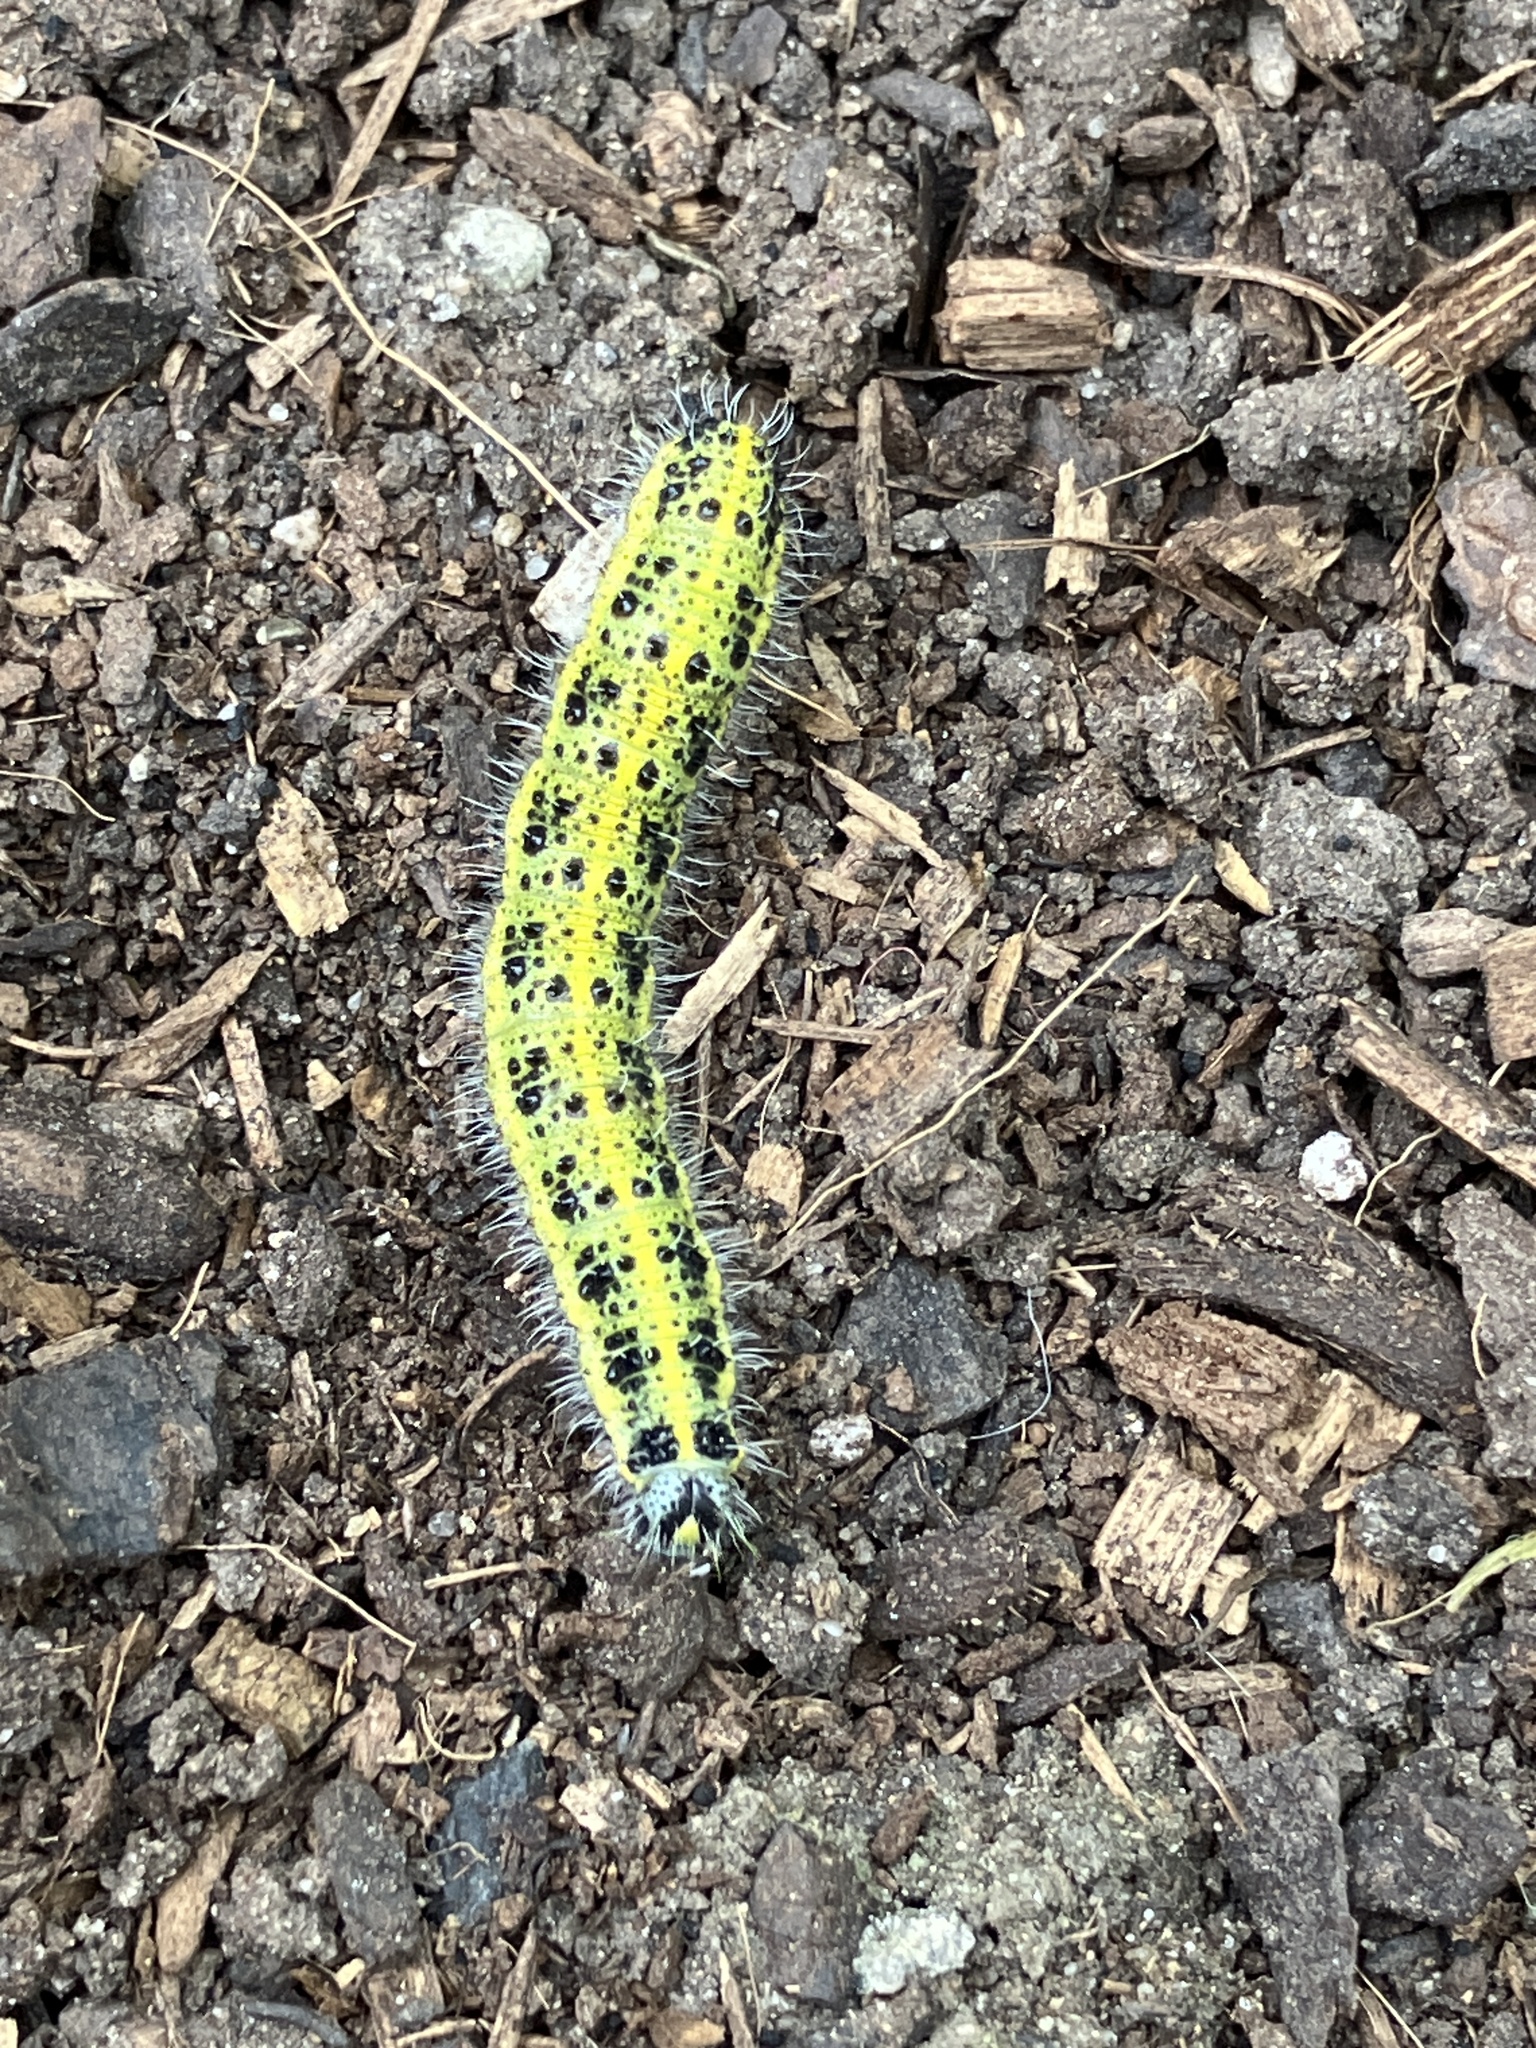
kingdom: Animalia
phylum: Arthropoda
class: Insecta
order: Lepidoptera
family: Pieridae
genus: Pieris
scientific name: Pieris brassicae
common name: Large white
